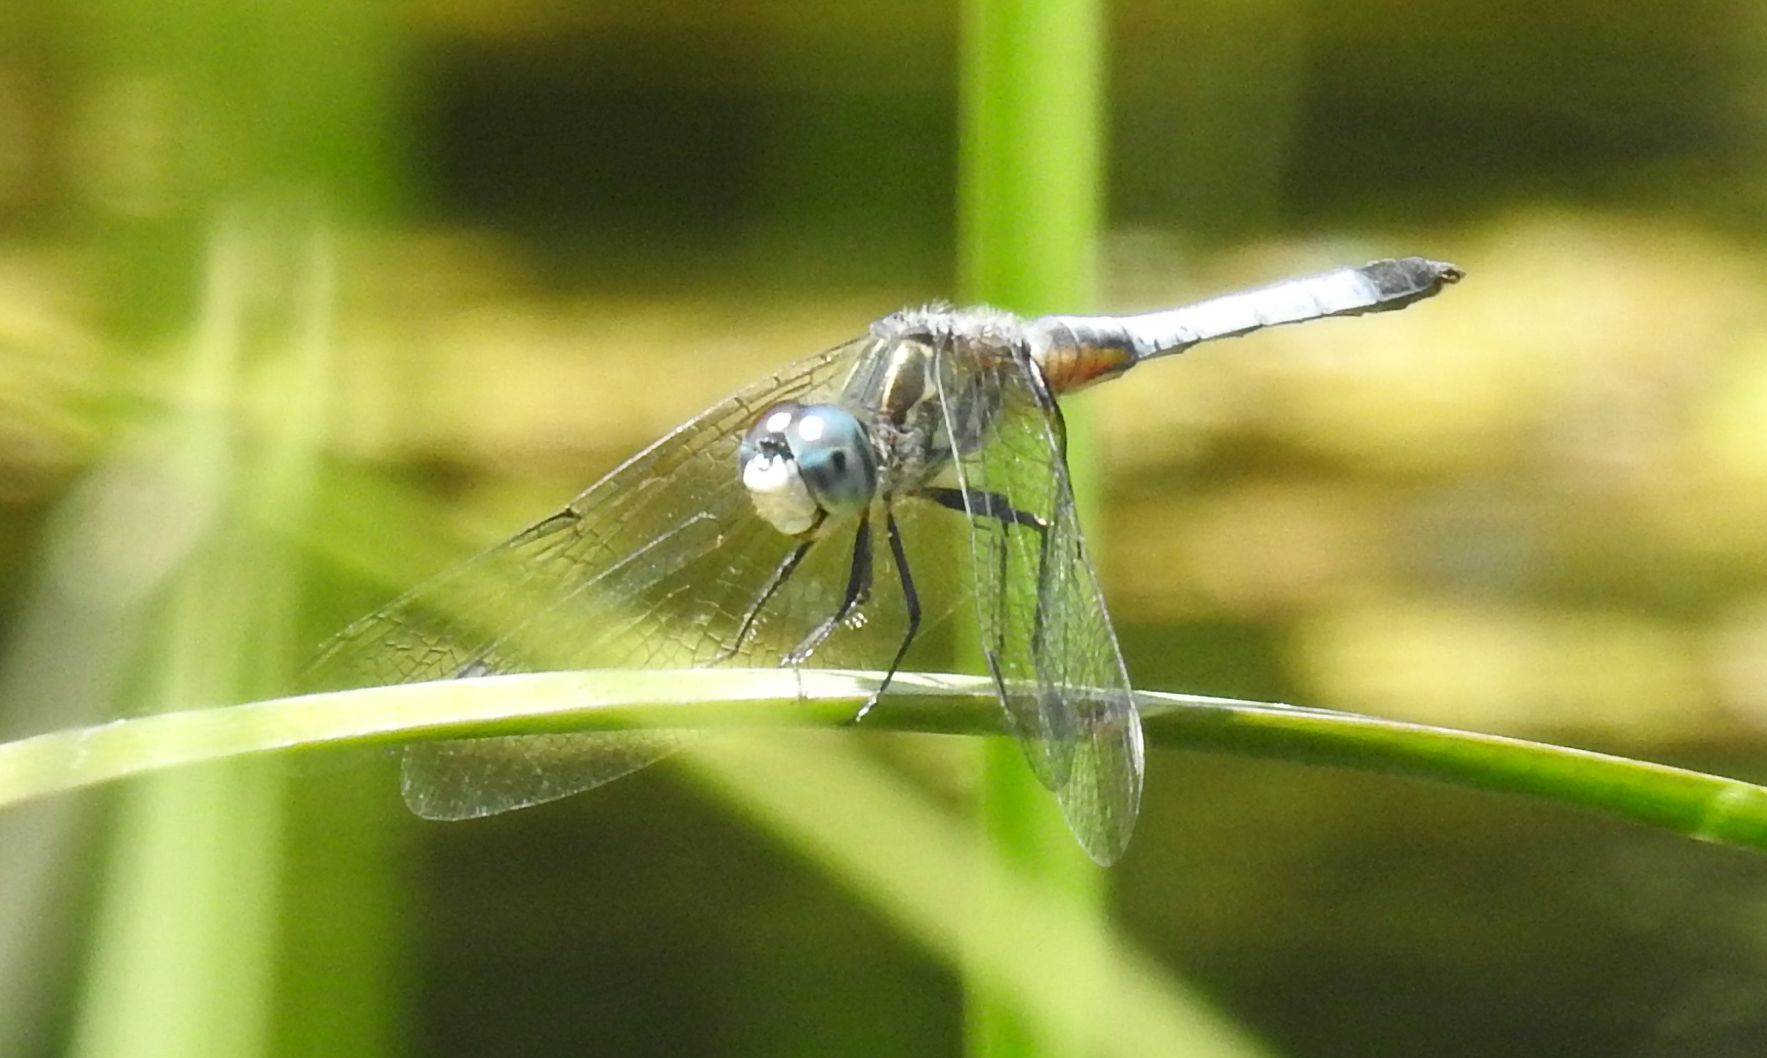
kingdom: Animalia
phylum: Arthropoda
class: Insecta
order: Odonata
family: Libellulidae
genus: Pachydiplax
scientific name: Pachydiplax longipennis
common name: Blue dasher
